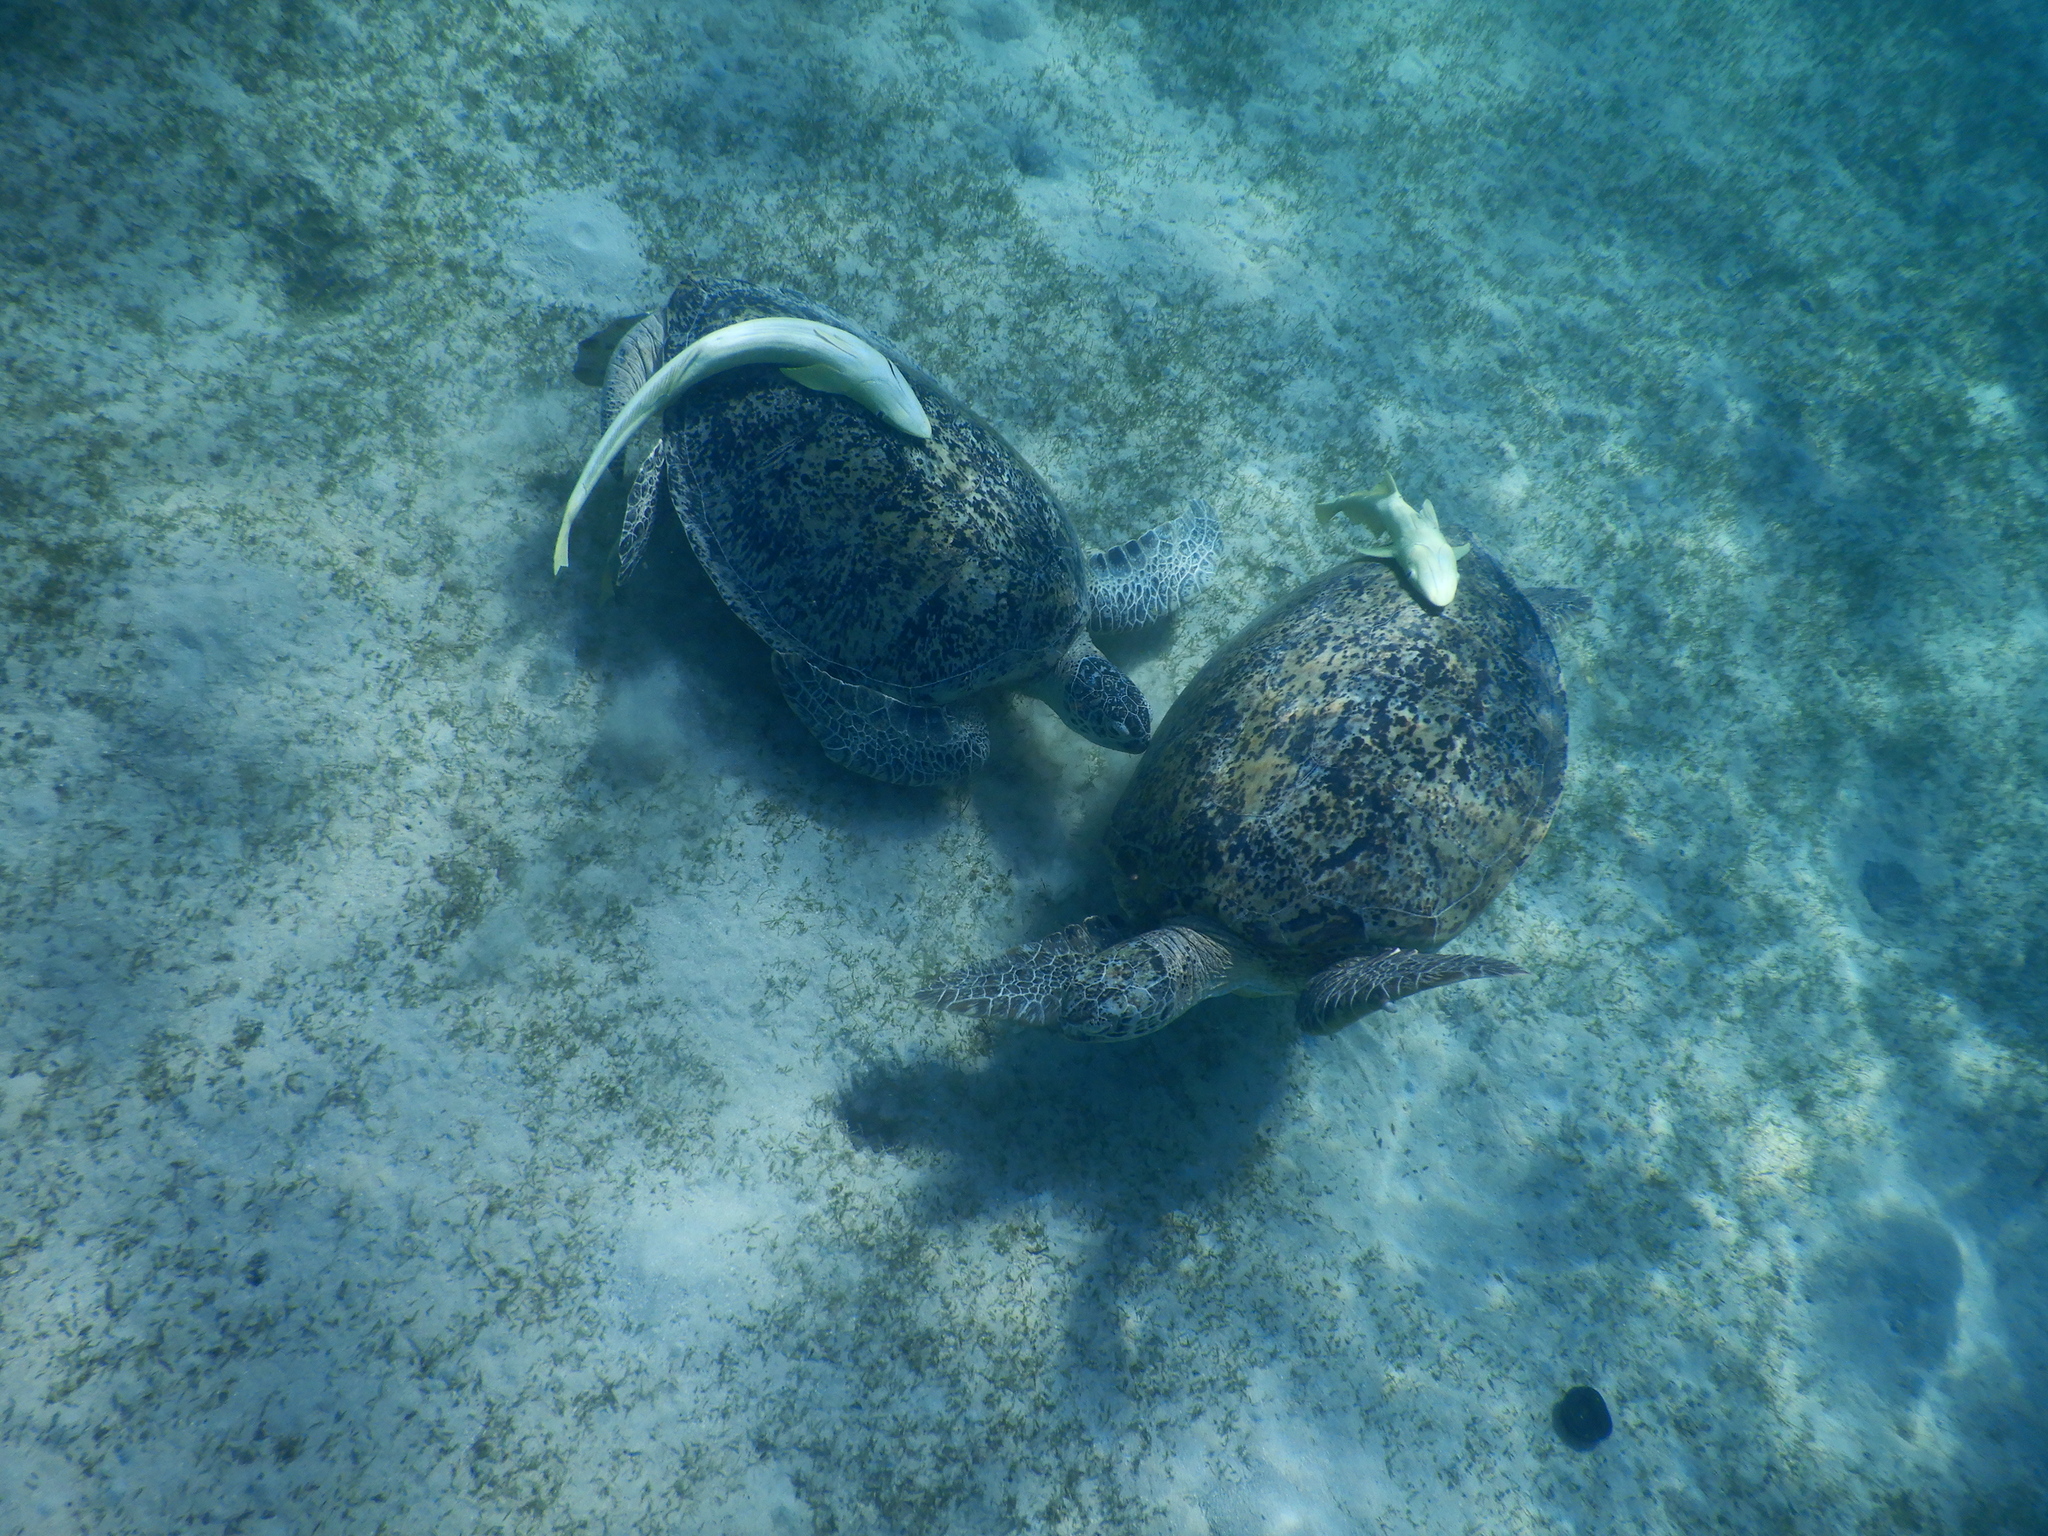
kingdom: Animalia
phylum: Chordata
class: Testudines
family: Cheloniidae
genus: Chelonia
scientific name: Chelonia mydas
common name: Green turtle
